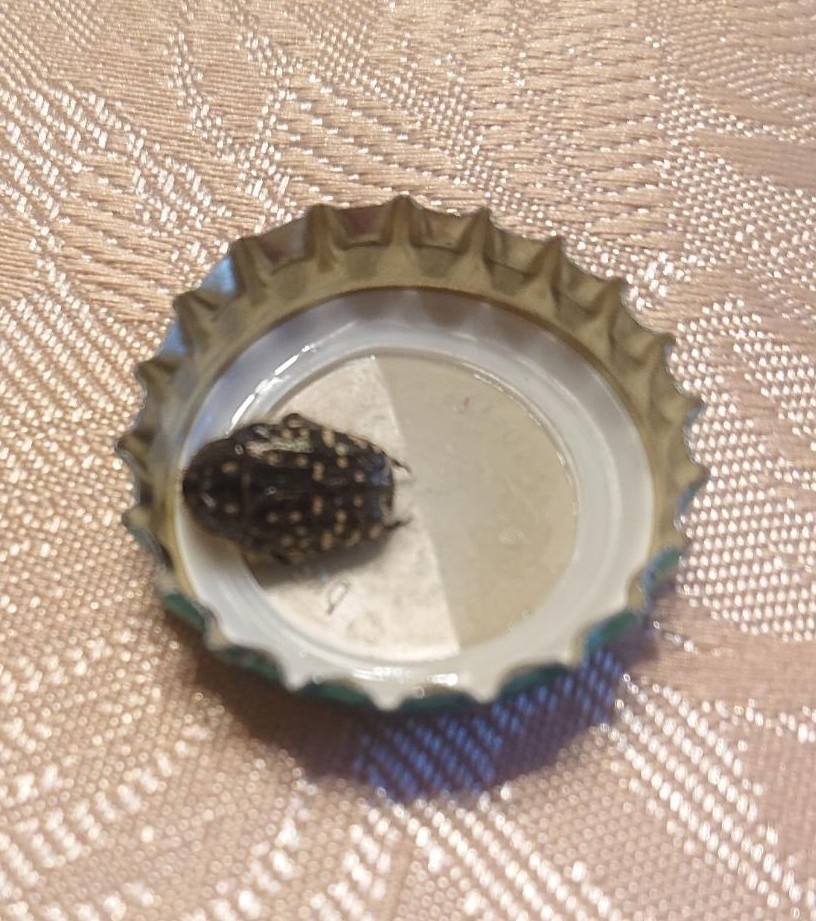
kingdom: Animalia
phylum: Arthropoda
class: Insecta
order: Coleoptera
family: Scarabaeidae
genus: Oxythyrea
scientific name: Oxythyrea funesta
